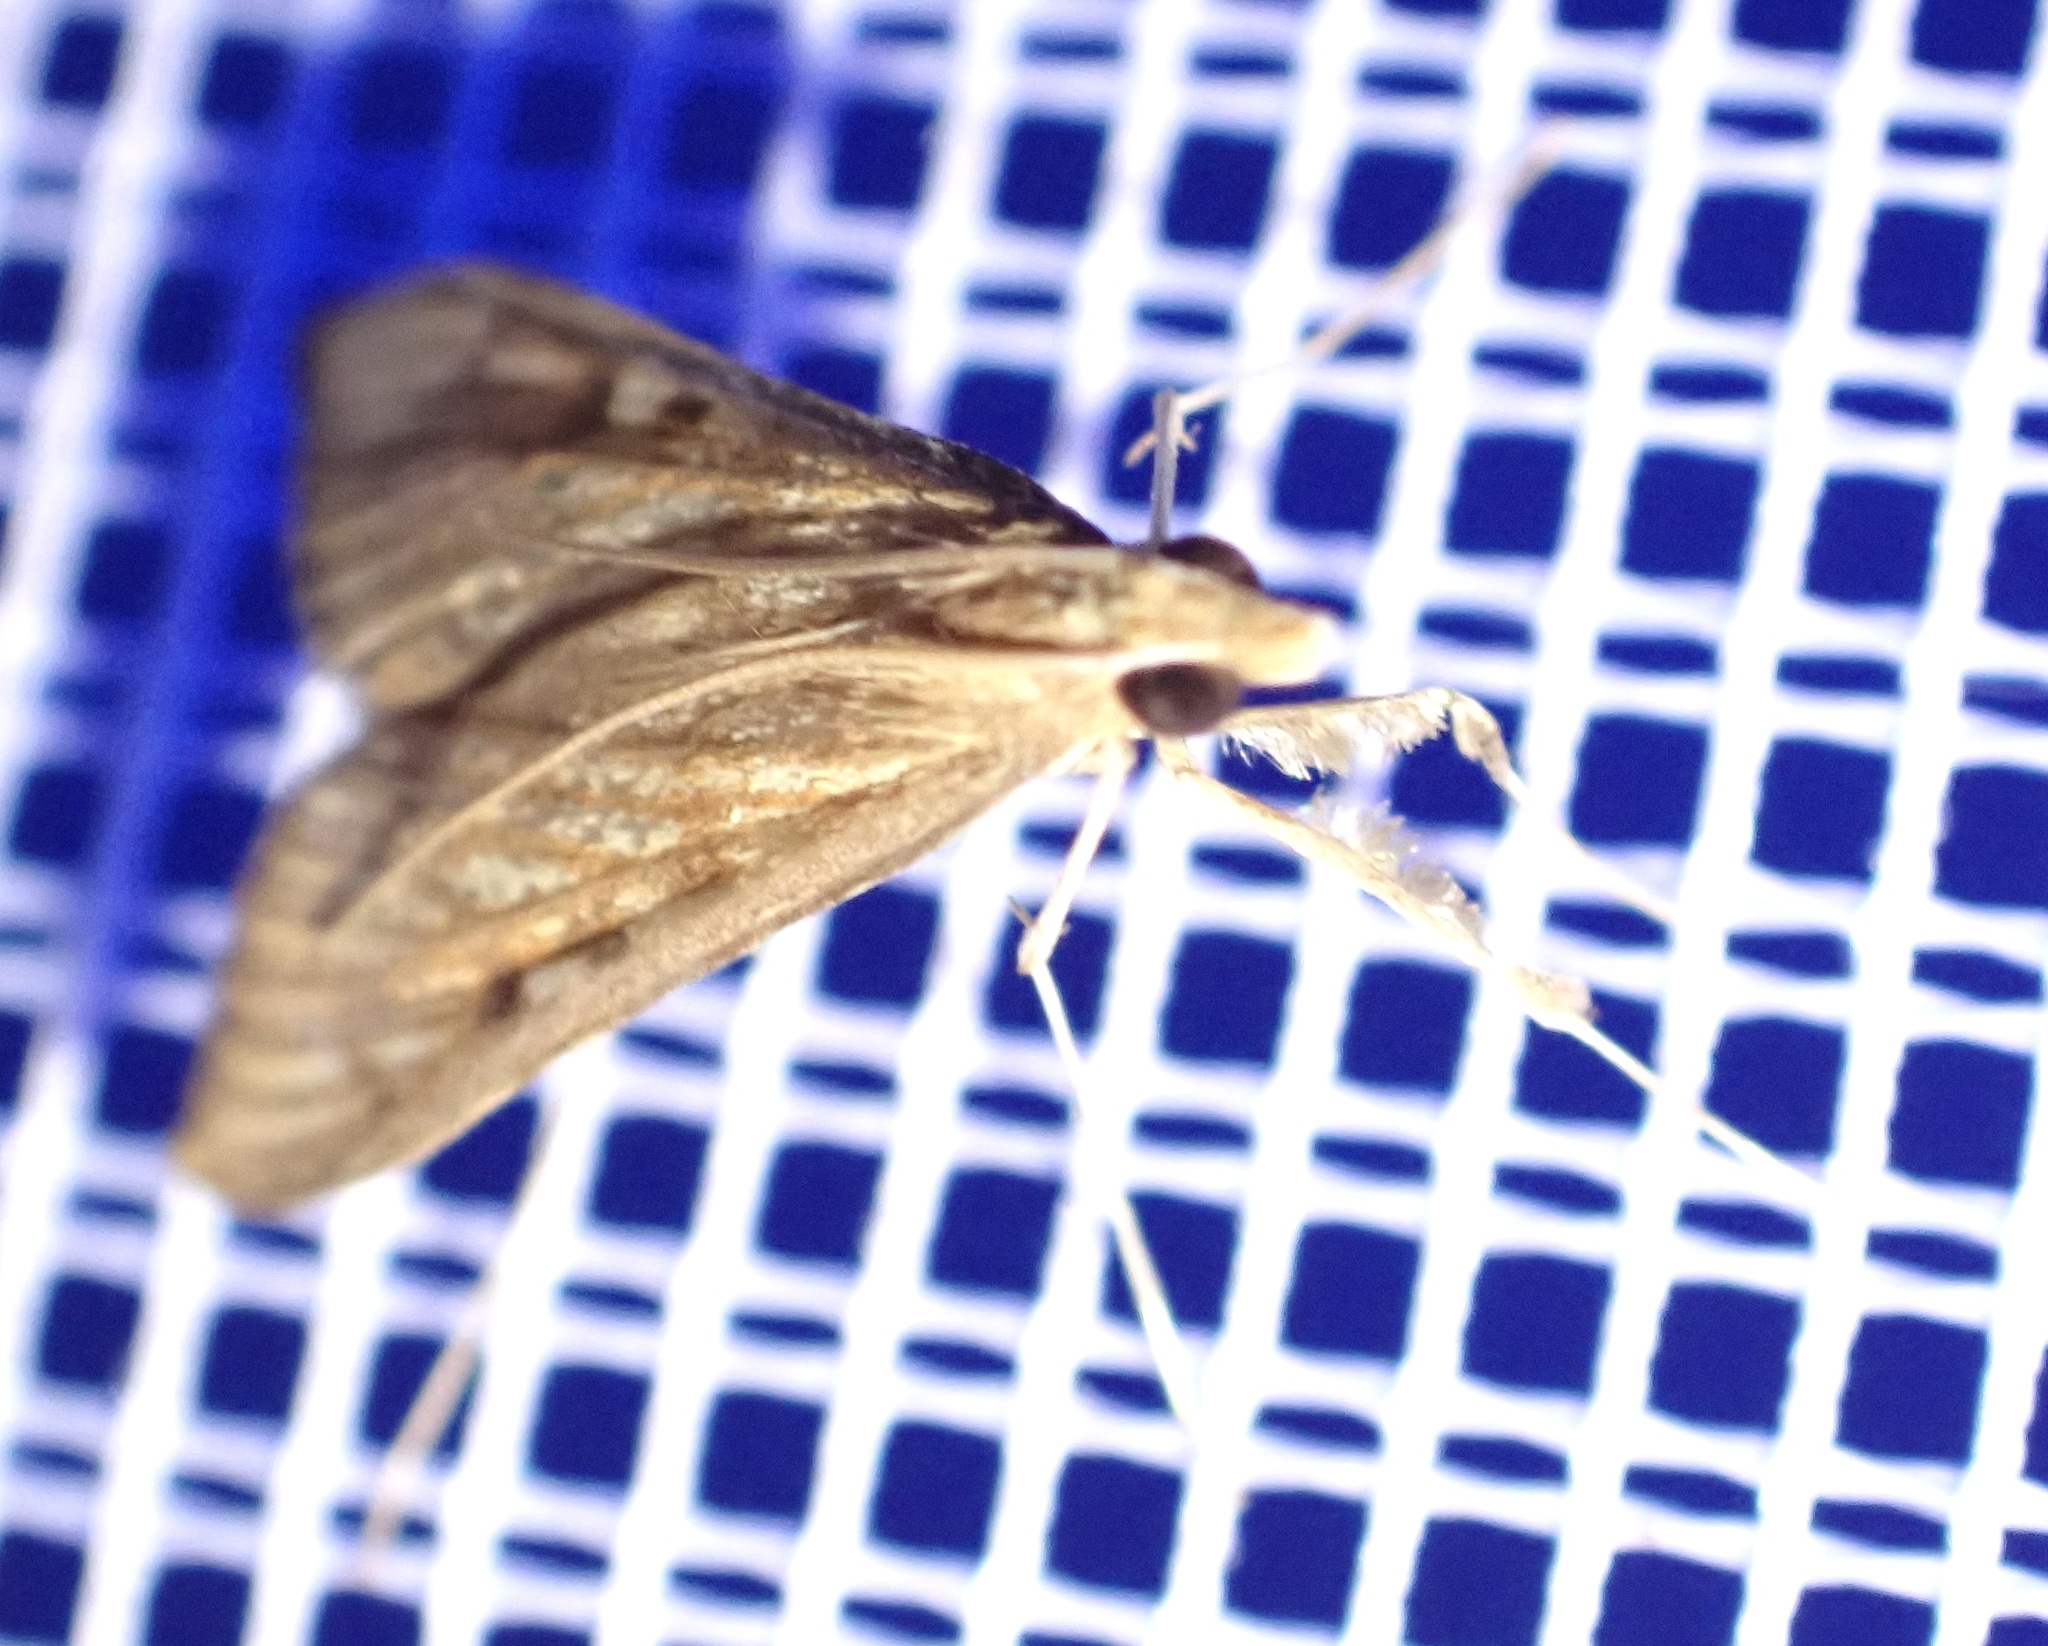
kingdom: Animalia
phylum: Arthropoda
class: Insecta
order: Lepidoptera
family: Crambidae
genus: Antigastra
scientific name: Antigastra catalaunalis
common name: Spanish dot
